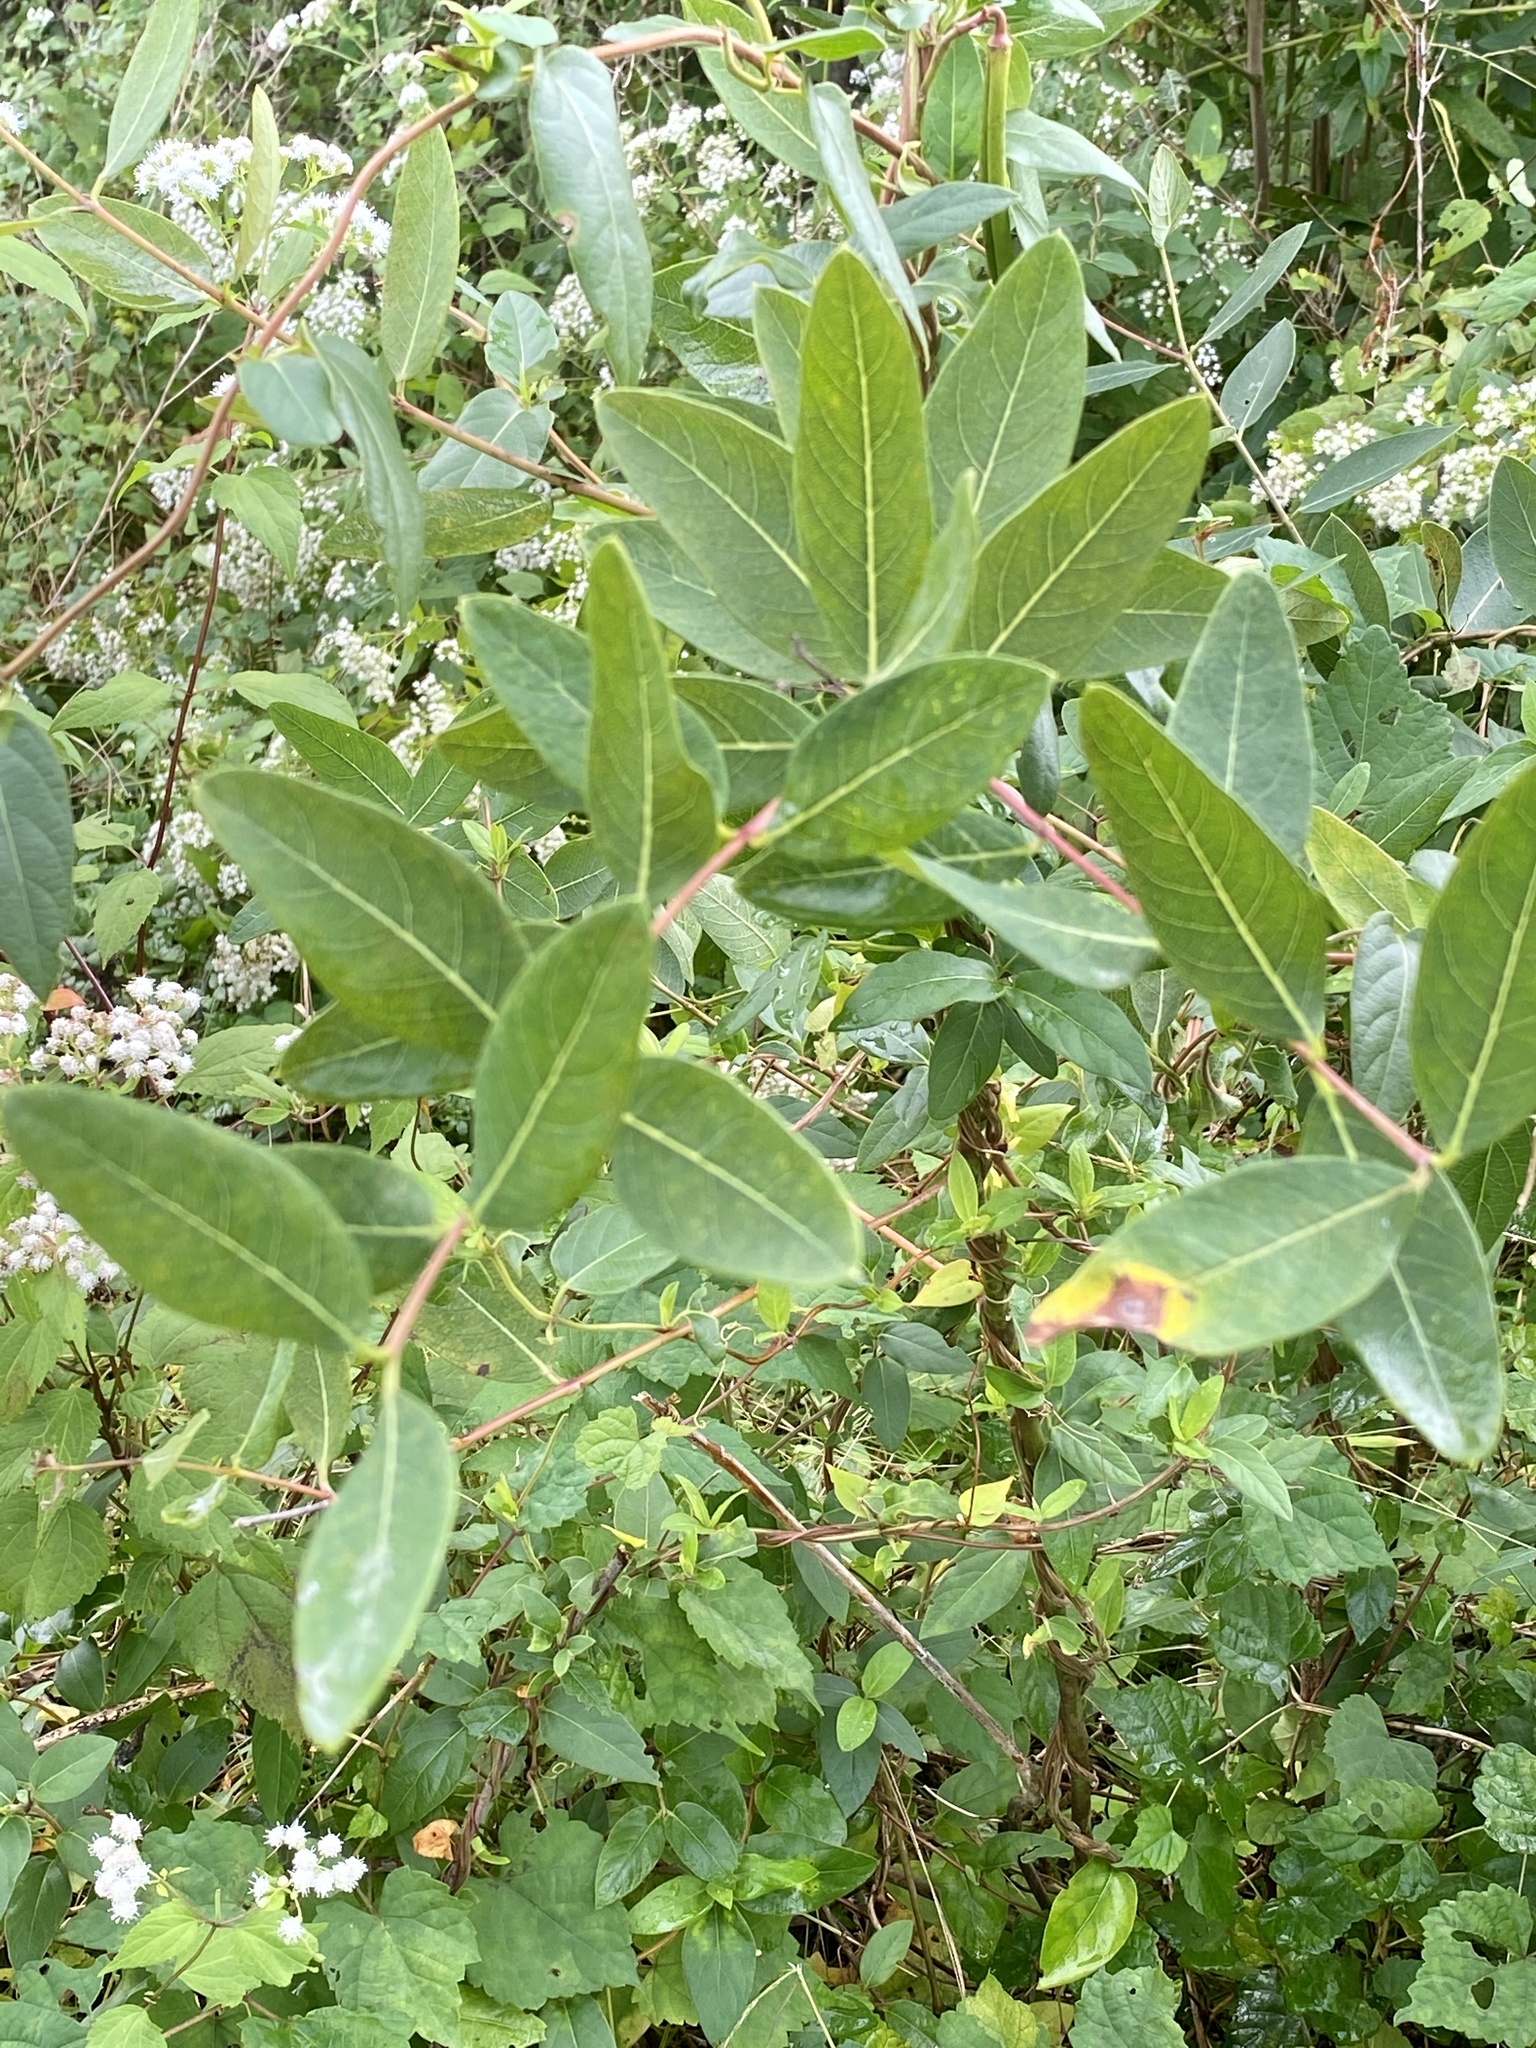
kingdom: Plantae
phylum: Tracheophyta
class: Magnoliopsida
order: Gentianales
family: Apocynaceae
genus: Apocynum
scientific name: Apocynum cannabinum
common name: Hemp dogbane
